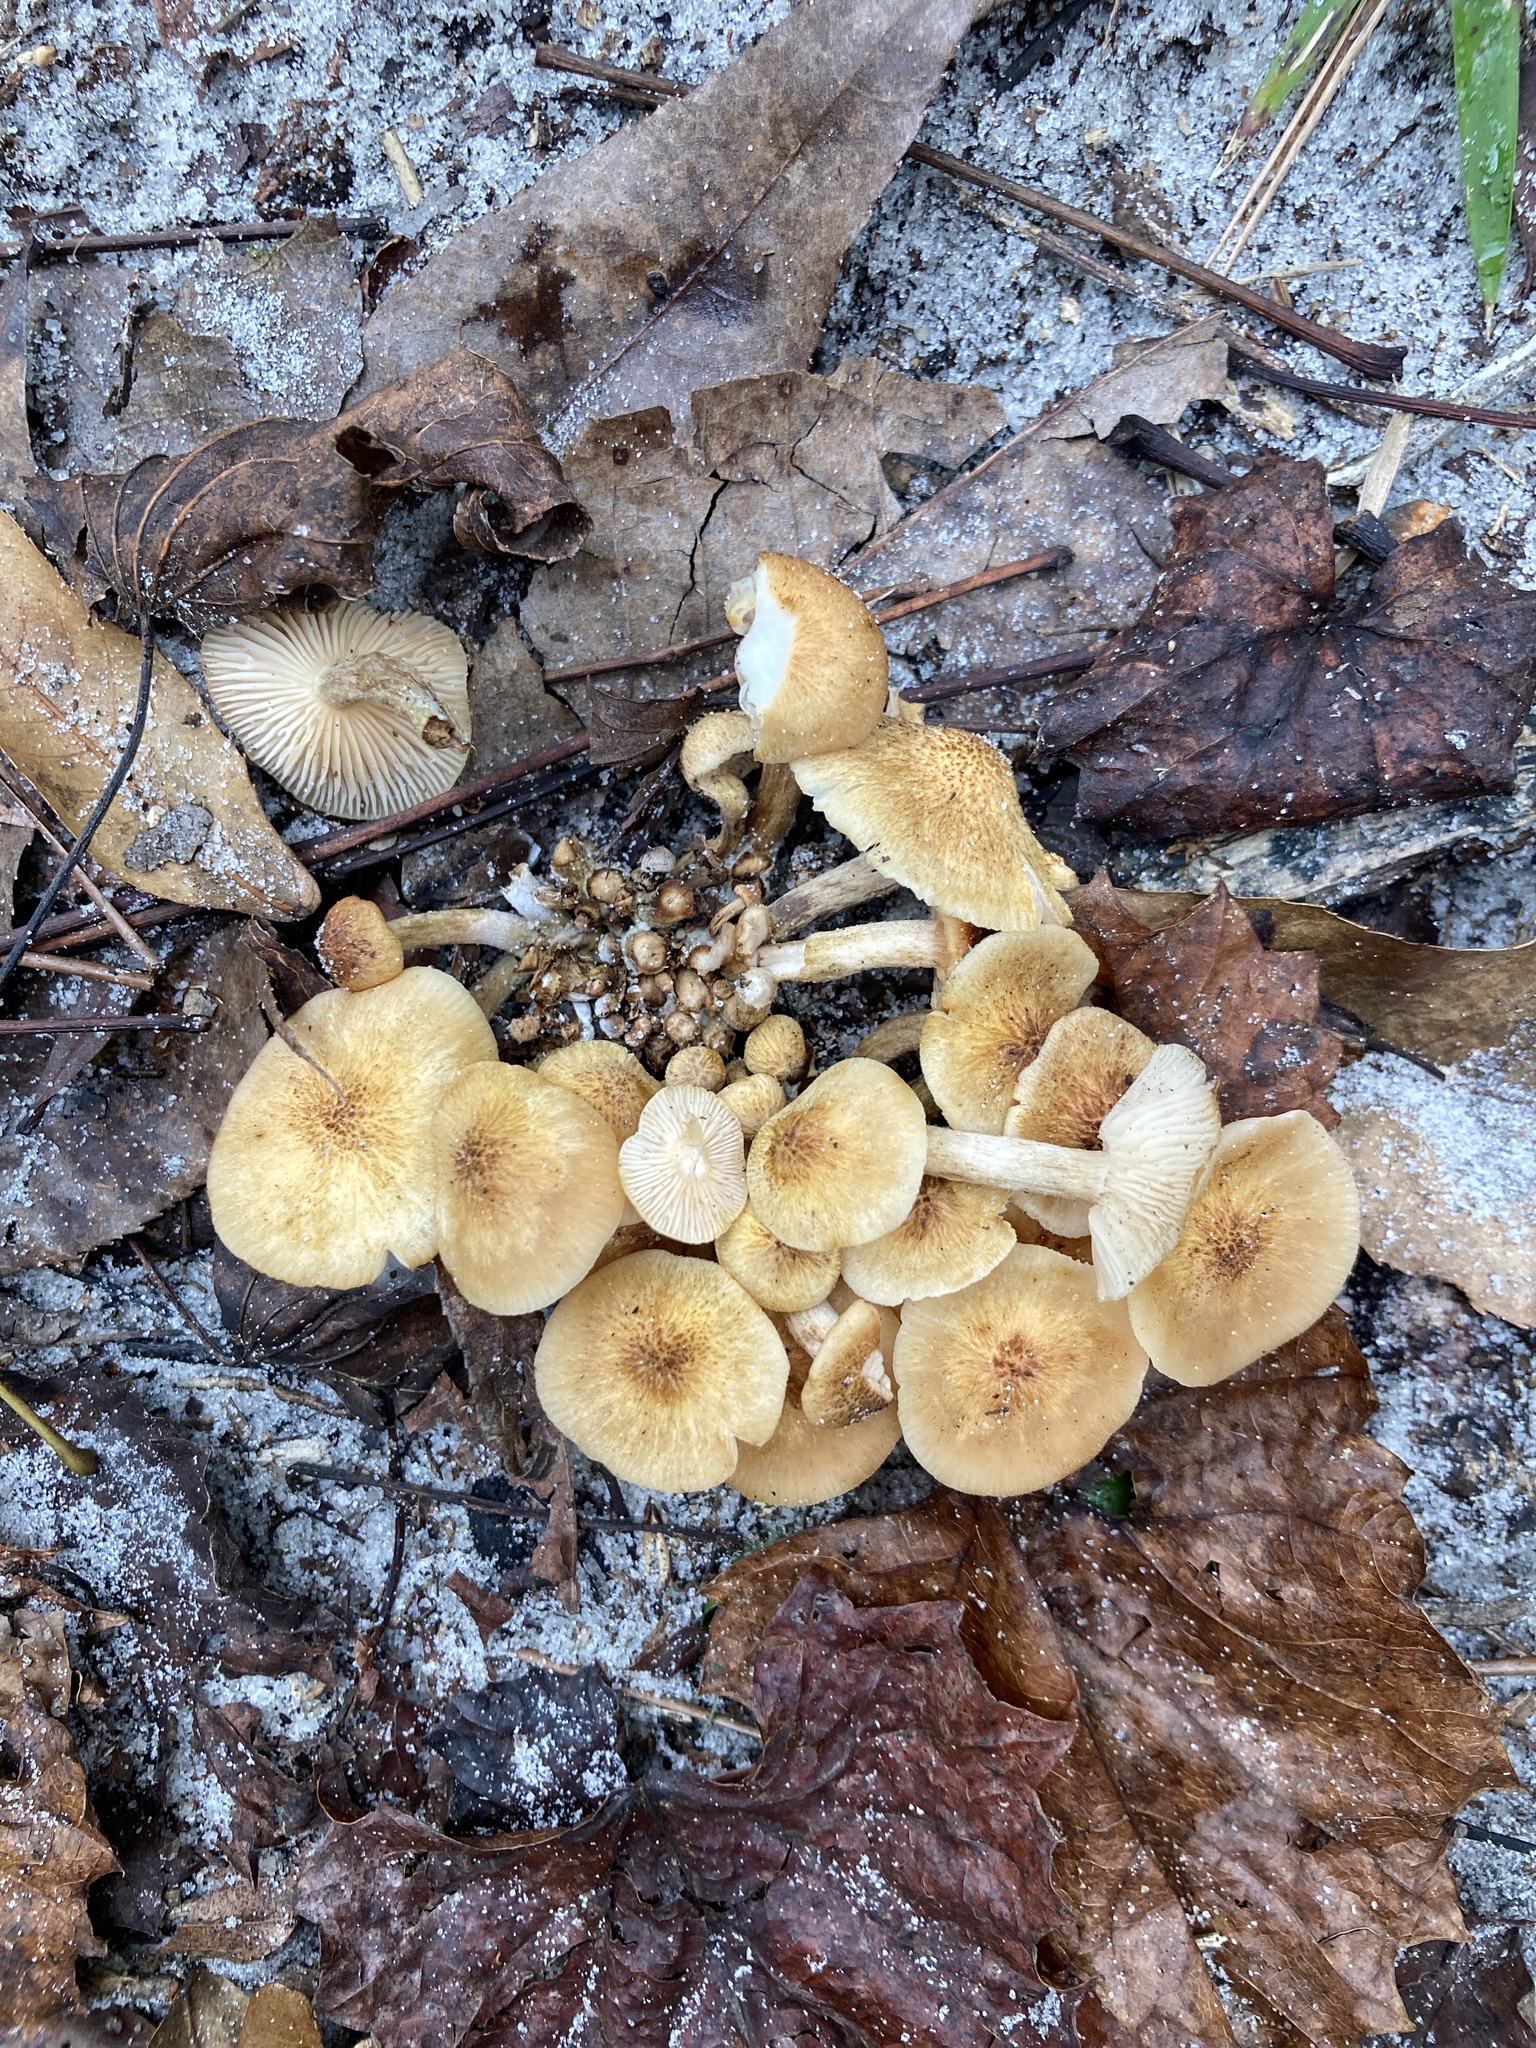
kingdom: Fungi
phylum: Basidiomycota
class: Agaricomycetes
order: Agaricales
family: Physalacriaceae
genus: Desarmillaria
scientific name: Desarmillaria caespitosa
